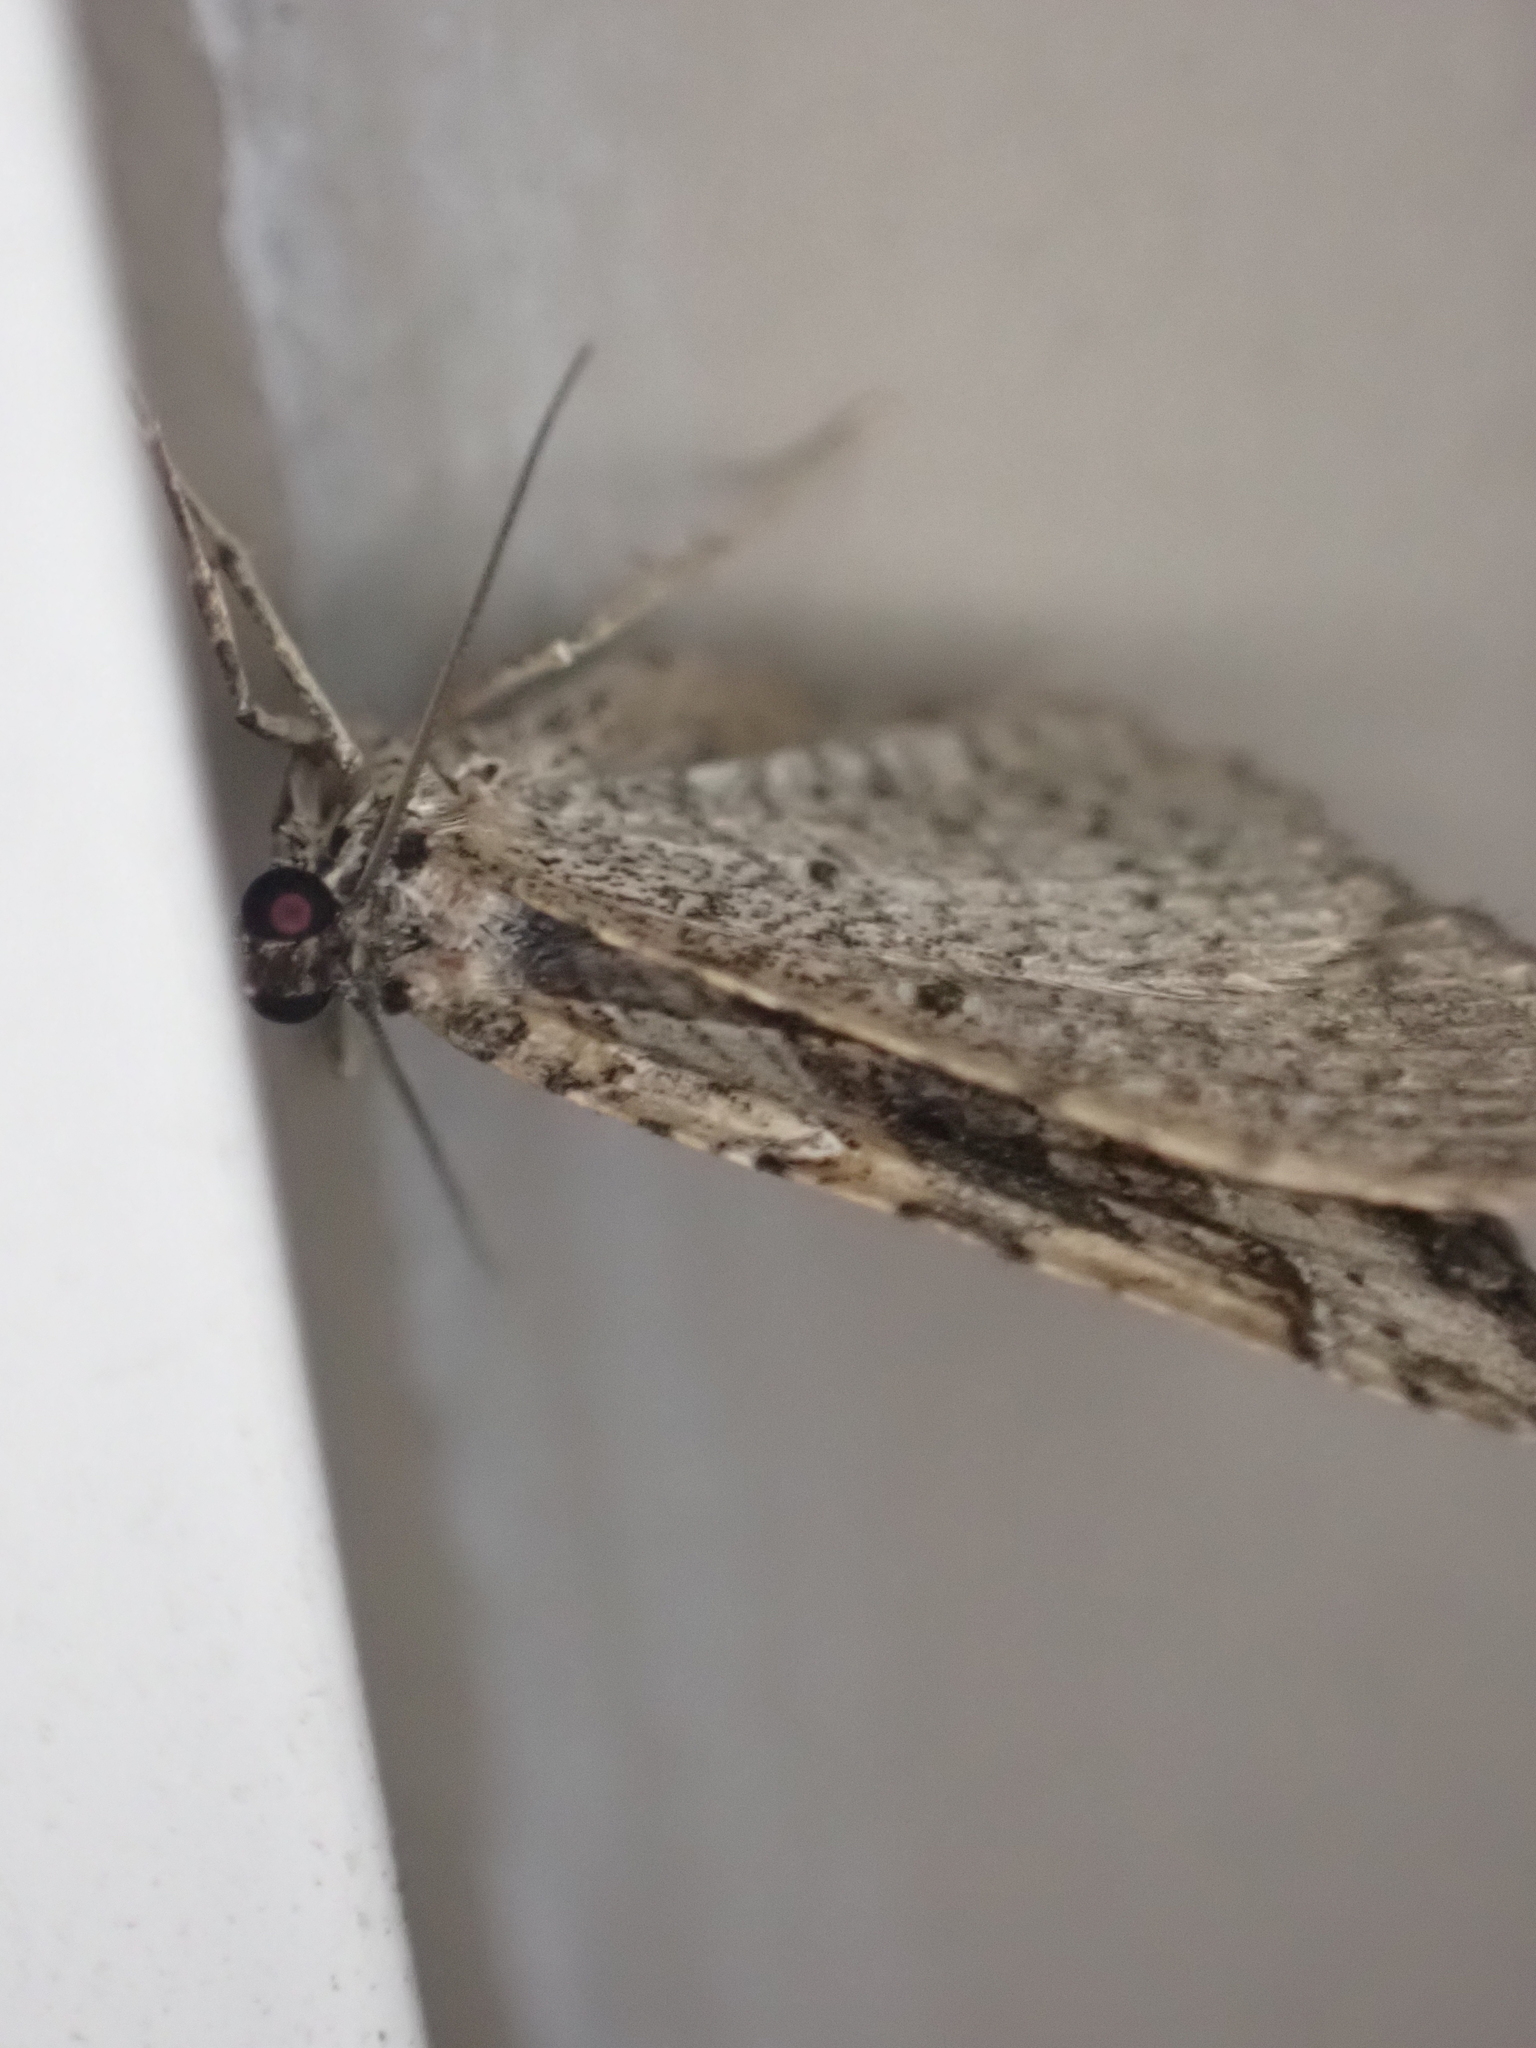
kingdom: Animalia
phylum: Arthropoda
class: Insecta
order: Lepidoptera
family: Geometridae
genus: Costaconvexa
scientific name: Costaconvexa centrostrigaria
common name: Bent-line carpet
